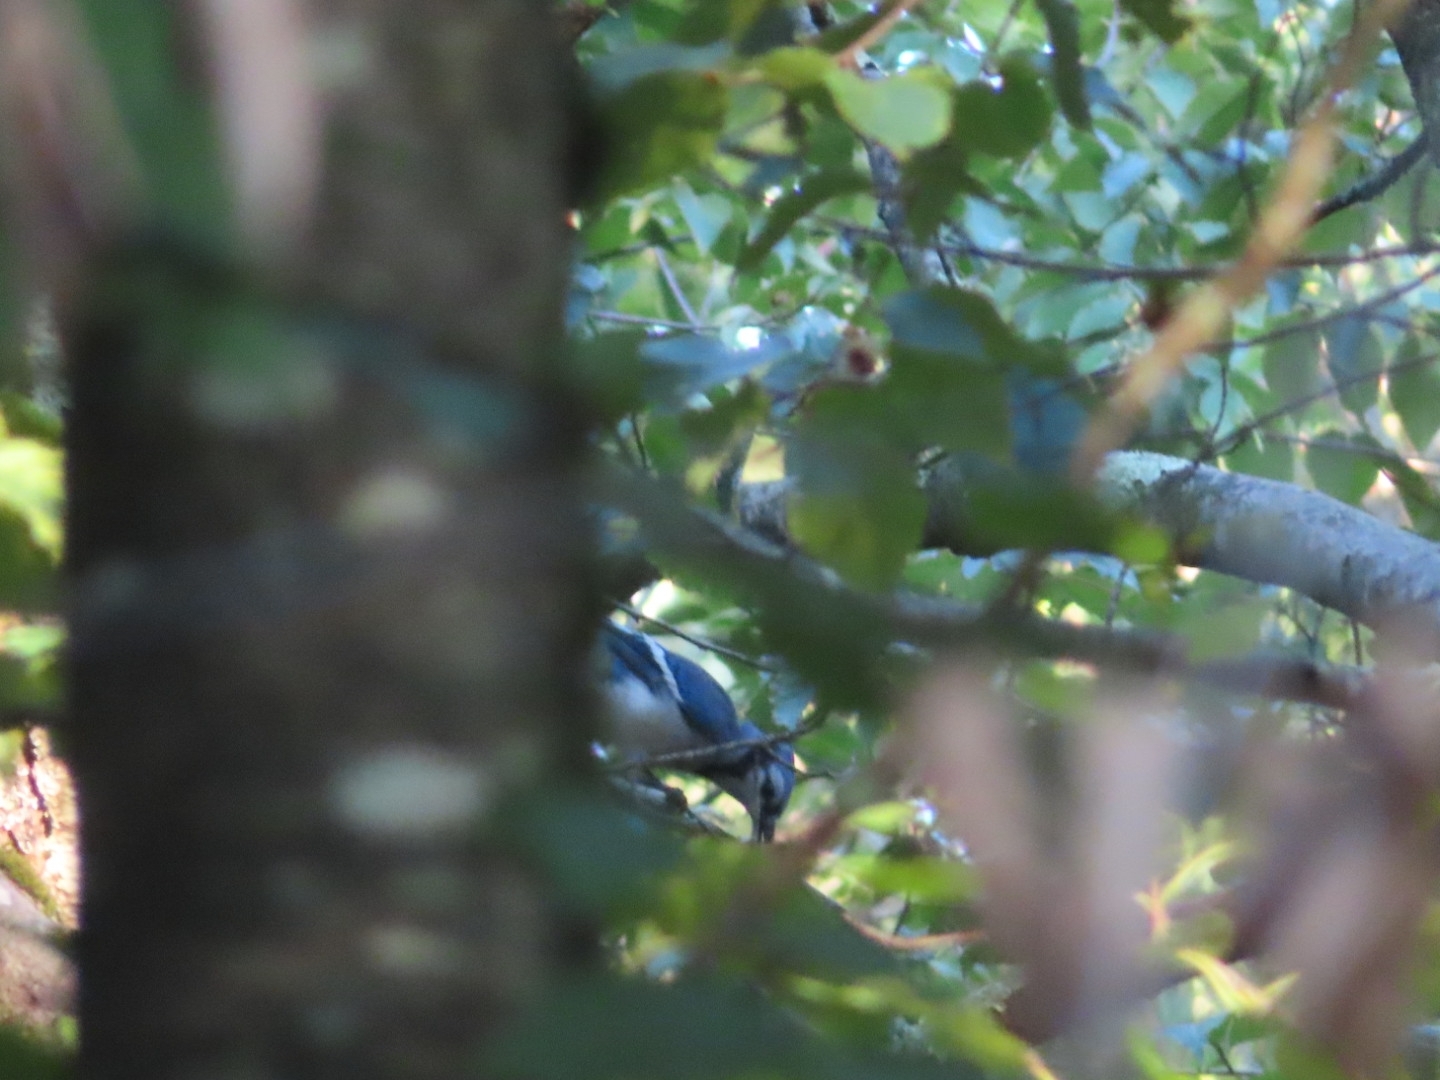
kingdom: Animalia
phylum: Chordata
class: Aves
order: Passeriformes
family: Corvidae
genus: Cyanocitta
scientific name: Cyanocitta cristata
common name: Blue jay
